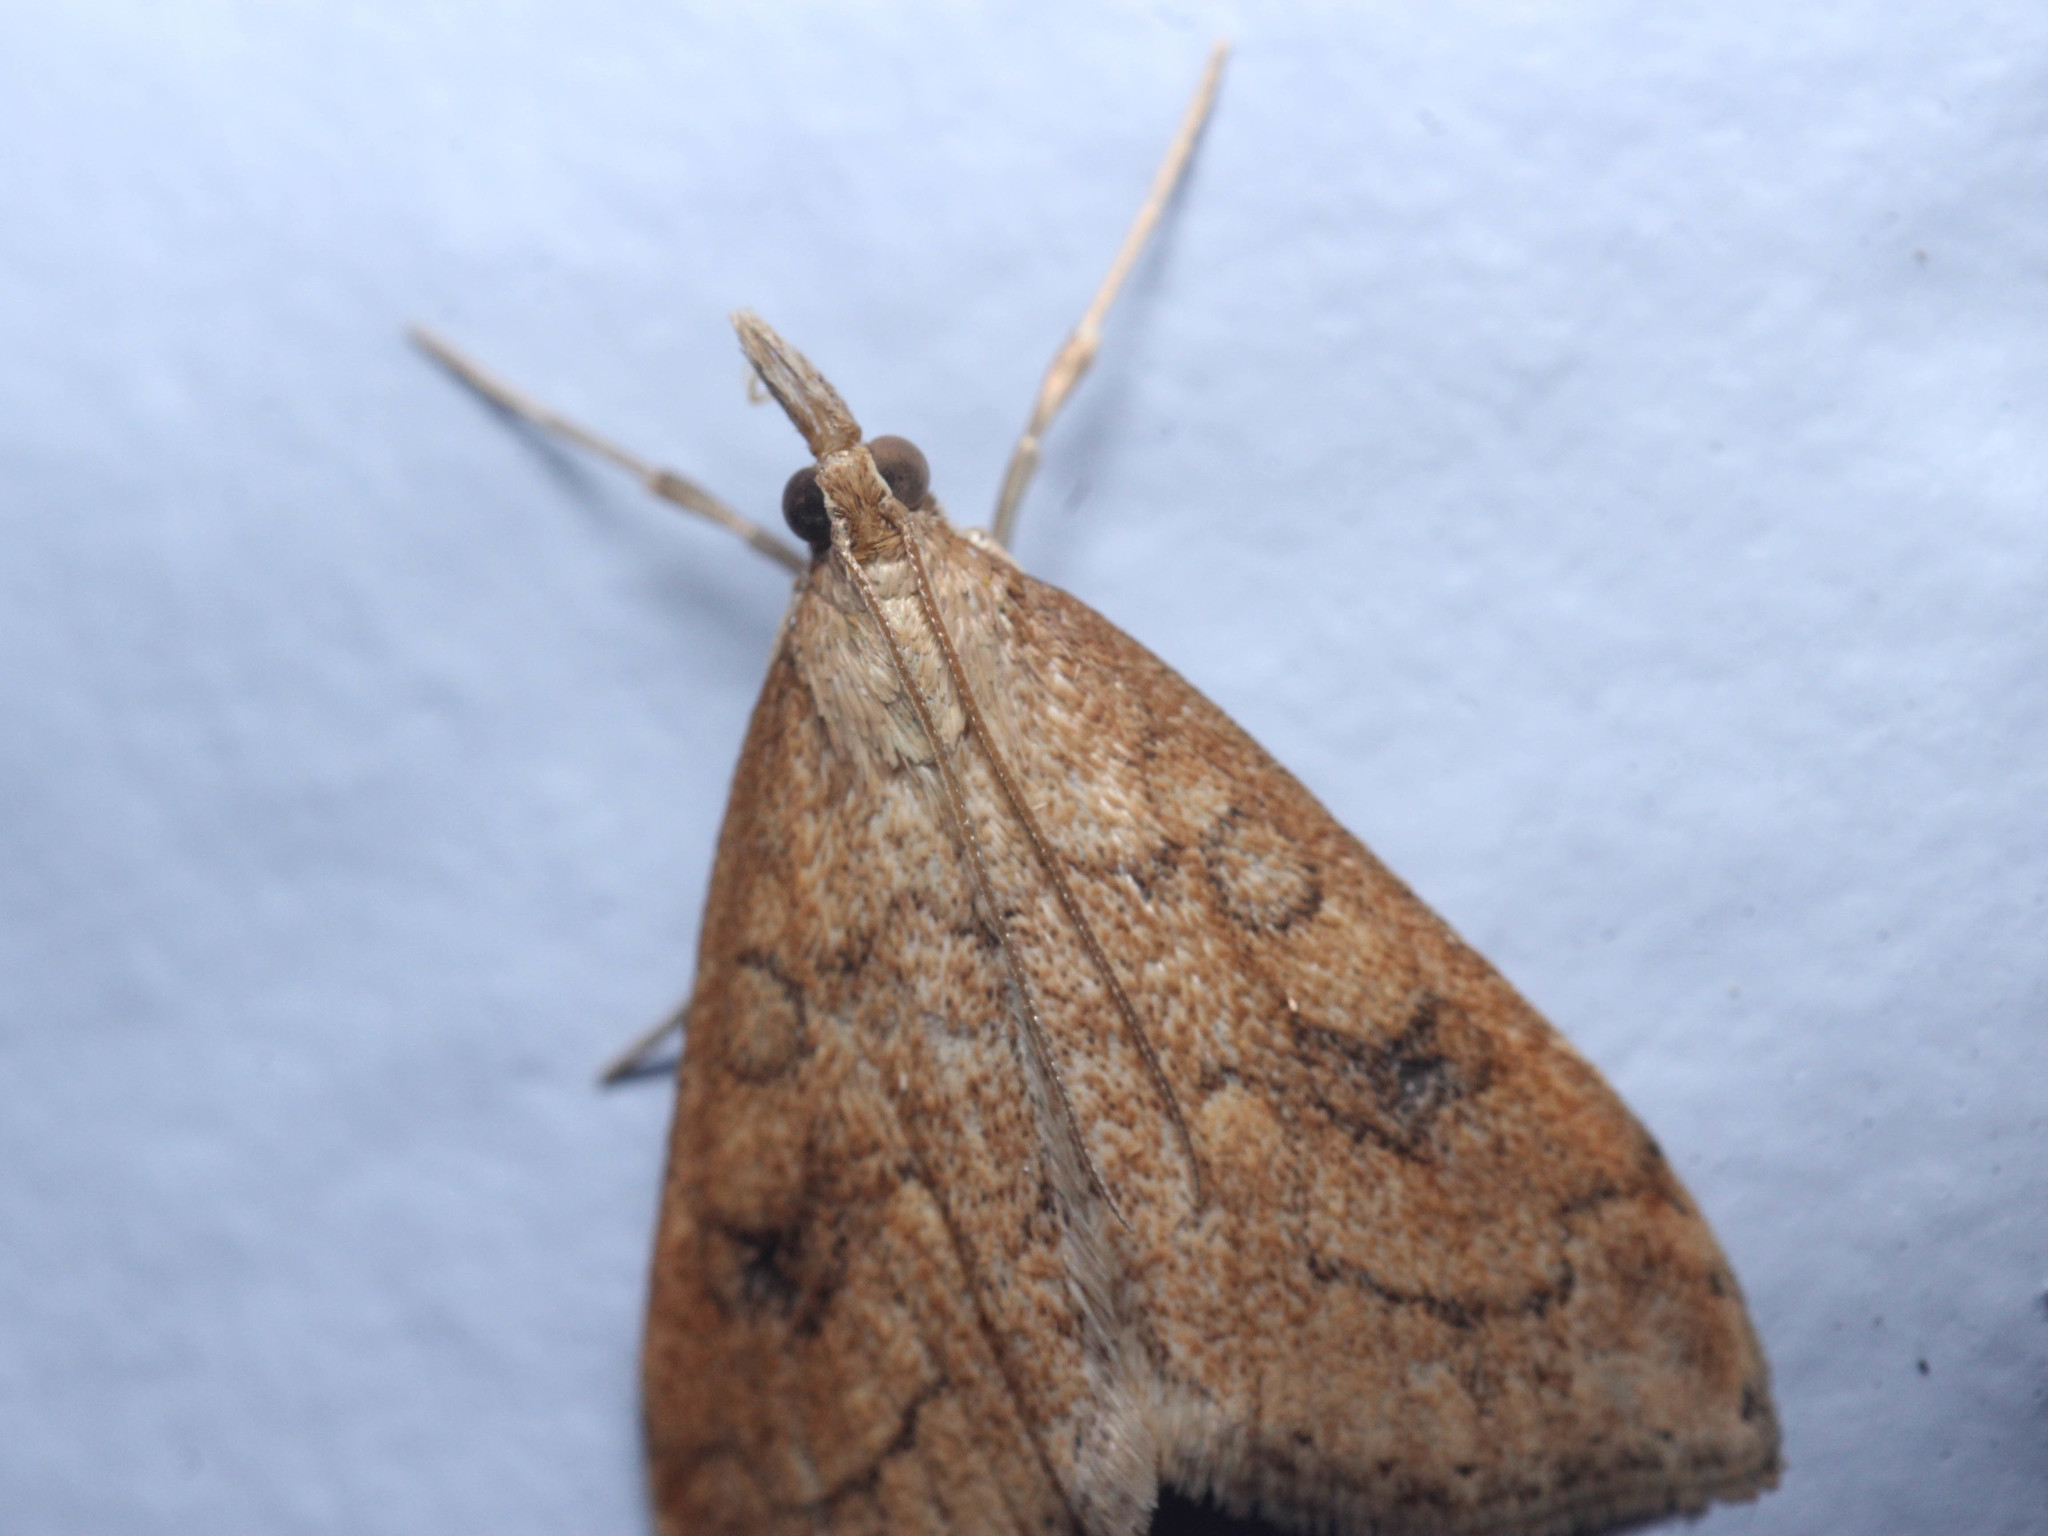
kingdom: Animalia
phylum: Arthropoda
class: Insecta
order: Lepidoptera
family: Crambidae
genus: Udea
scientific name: Udea rubigalis
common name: Celery leaftier moth
